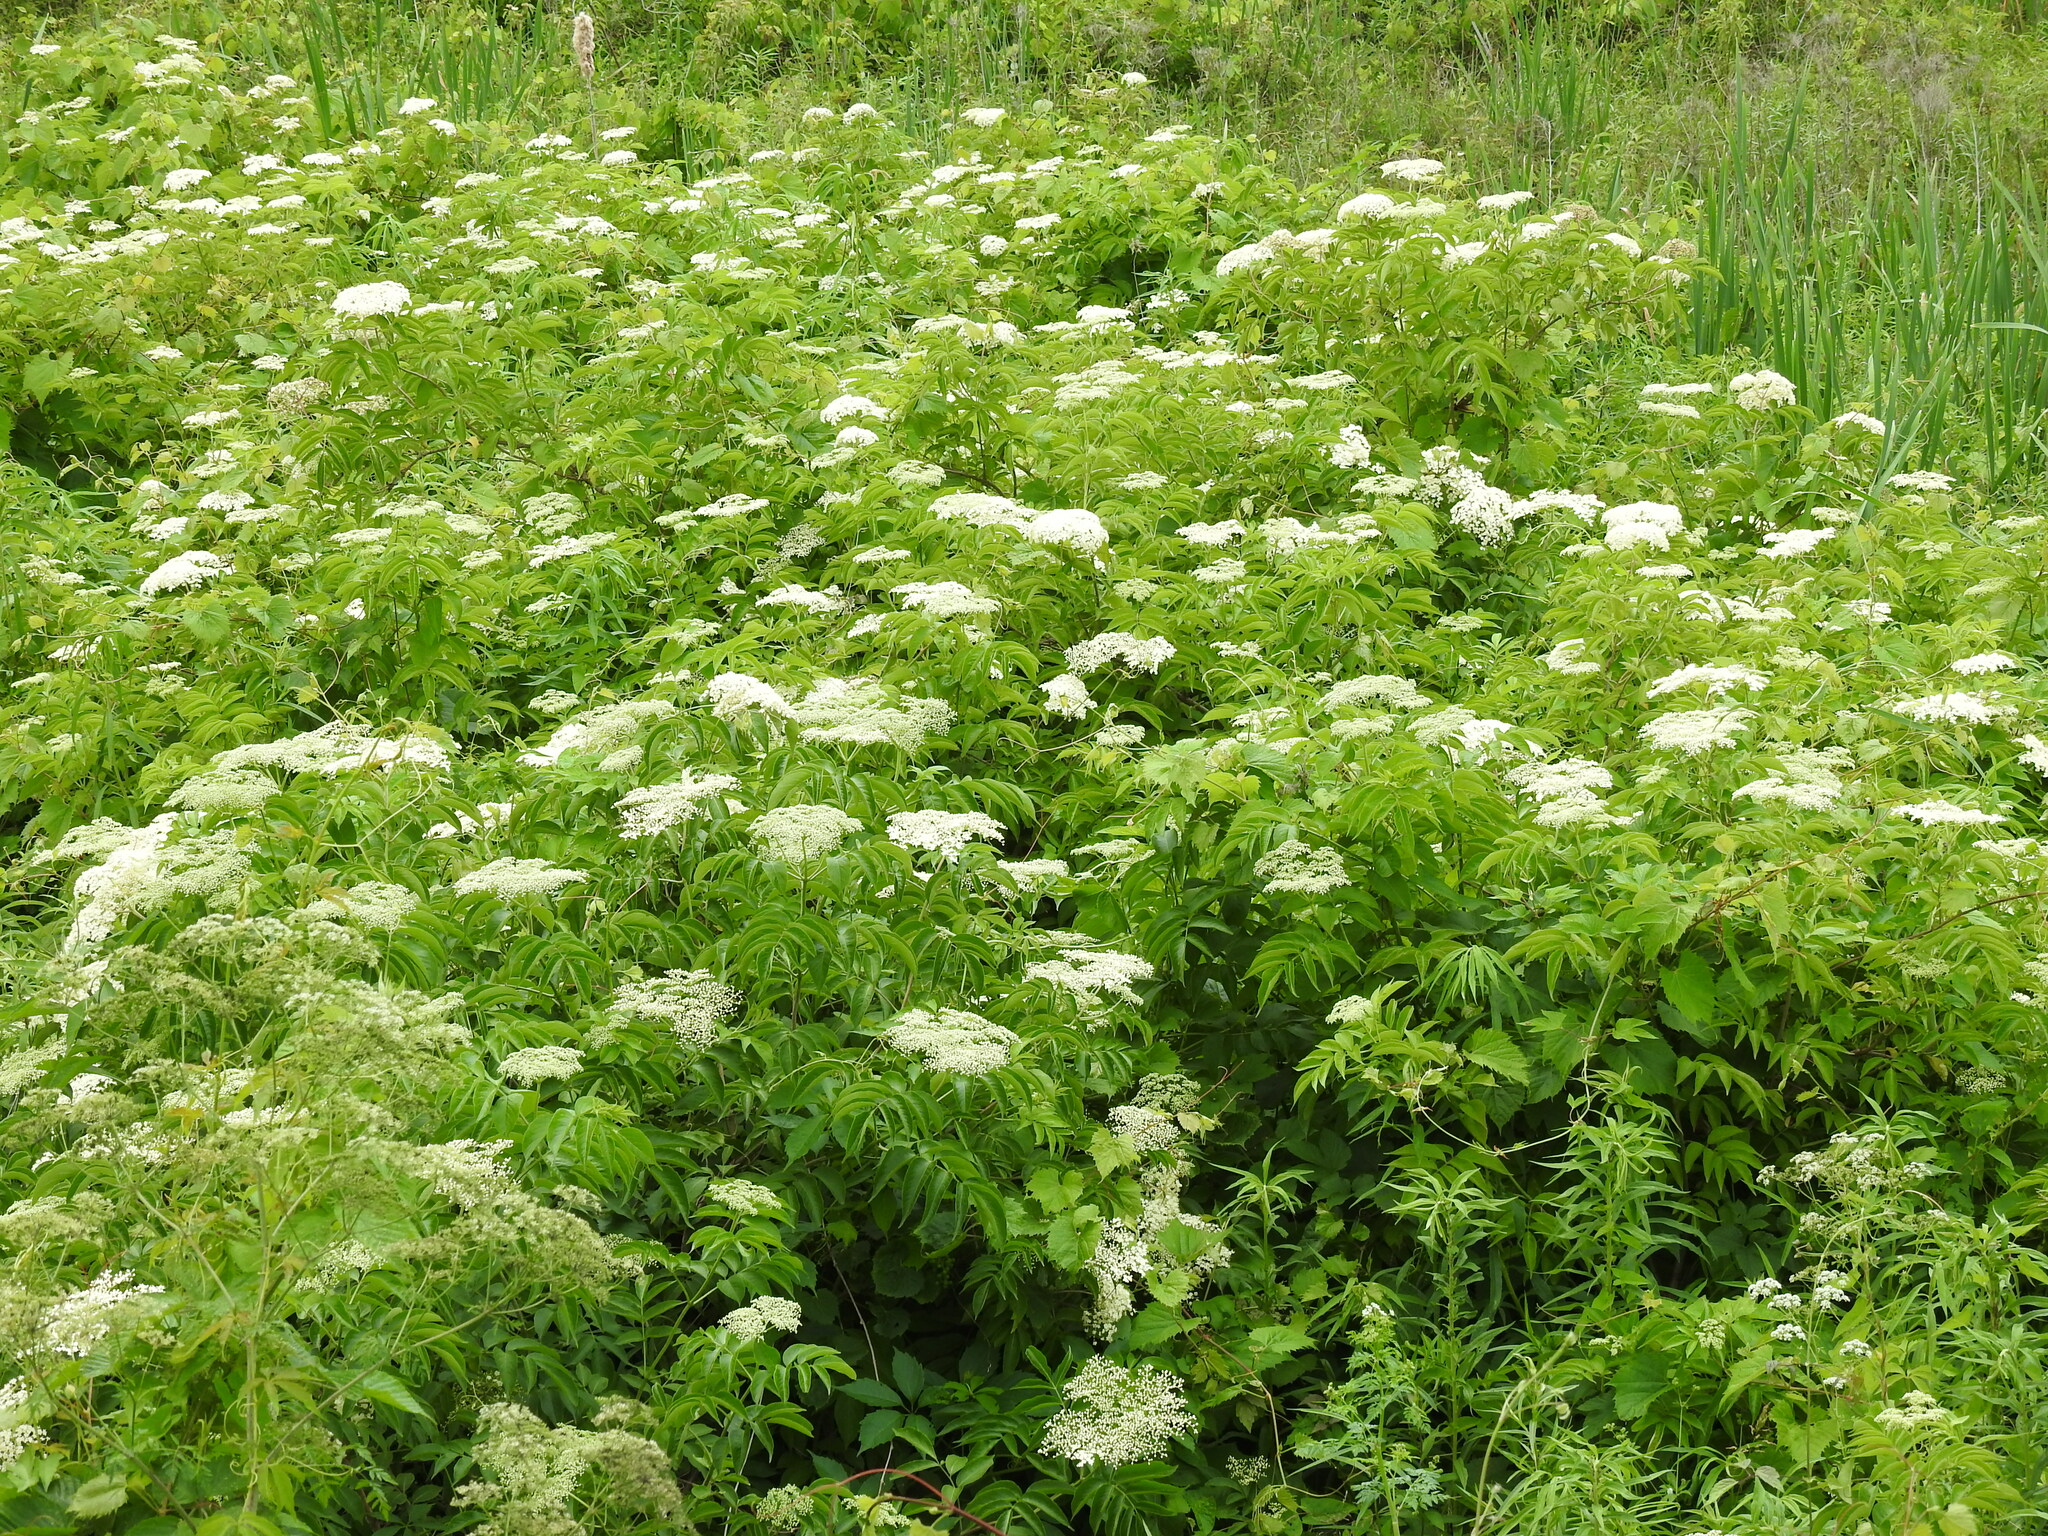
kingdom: Plantae
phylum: Tracheophyta
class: Magnoliopsida
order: Dipsacales
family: Viburnaceae
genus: Sambucus
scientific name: Sambucus canadensis
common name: American elder
